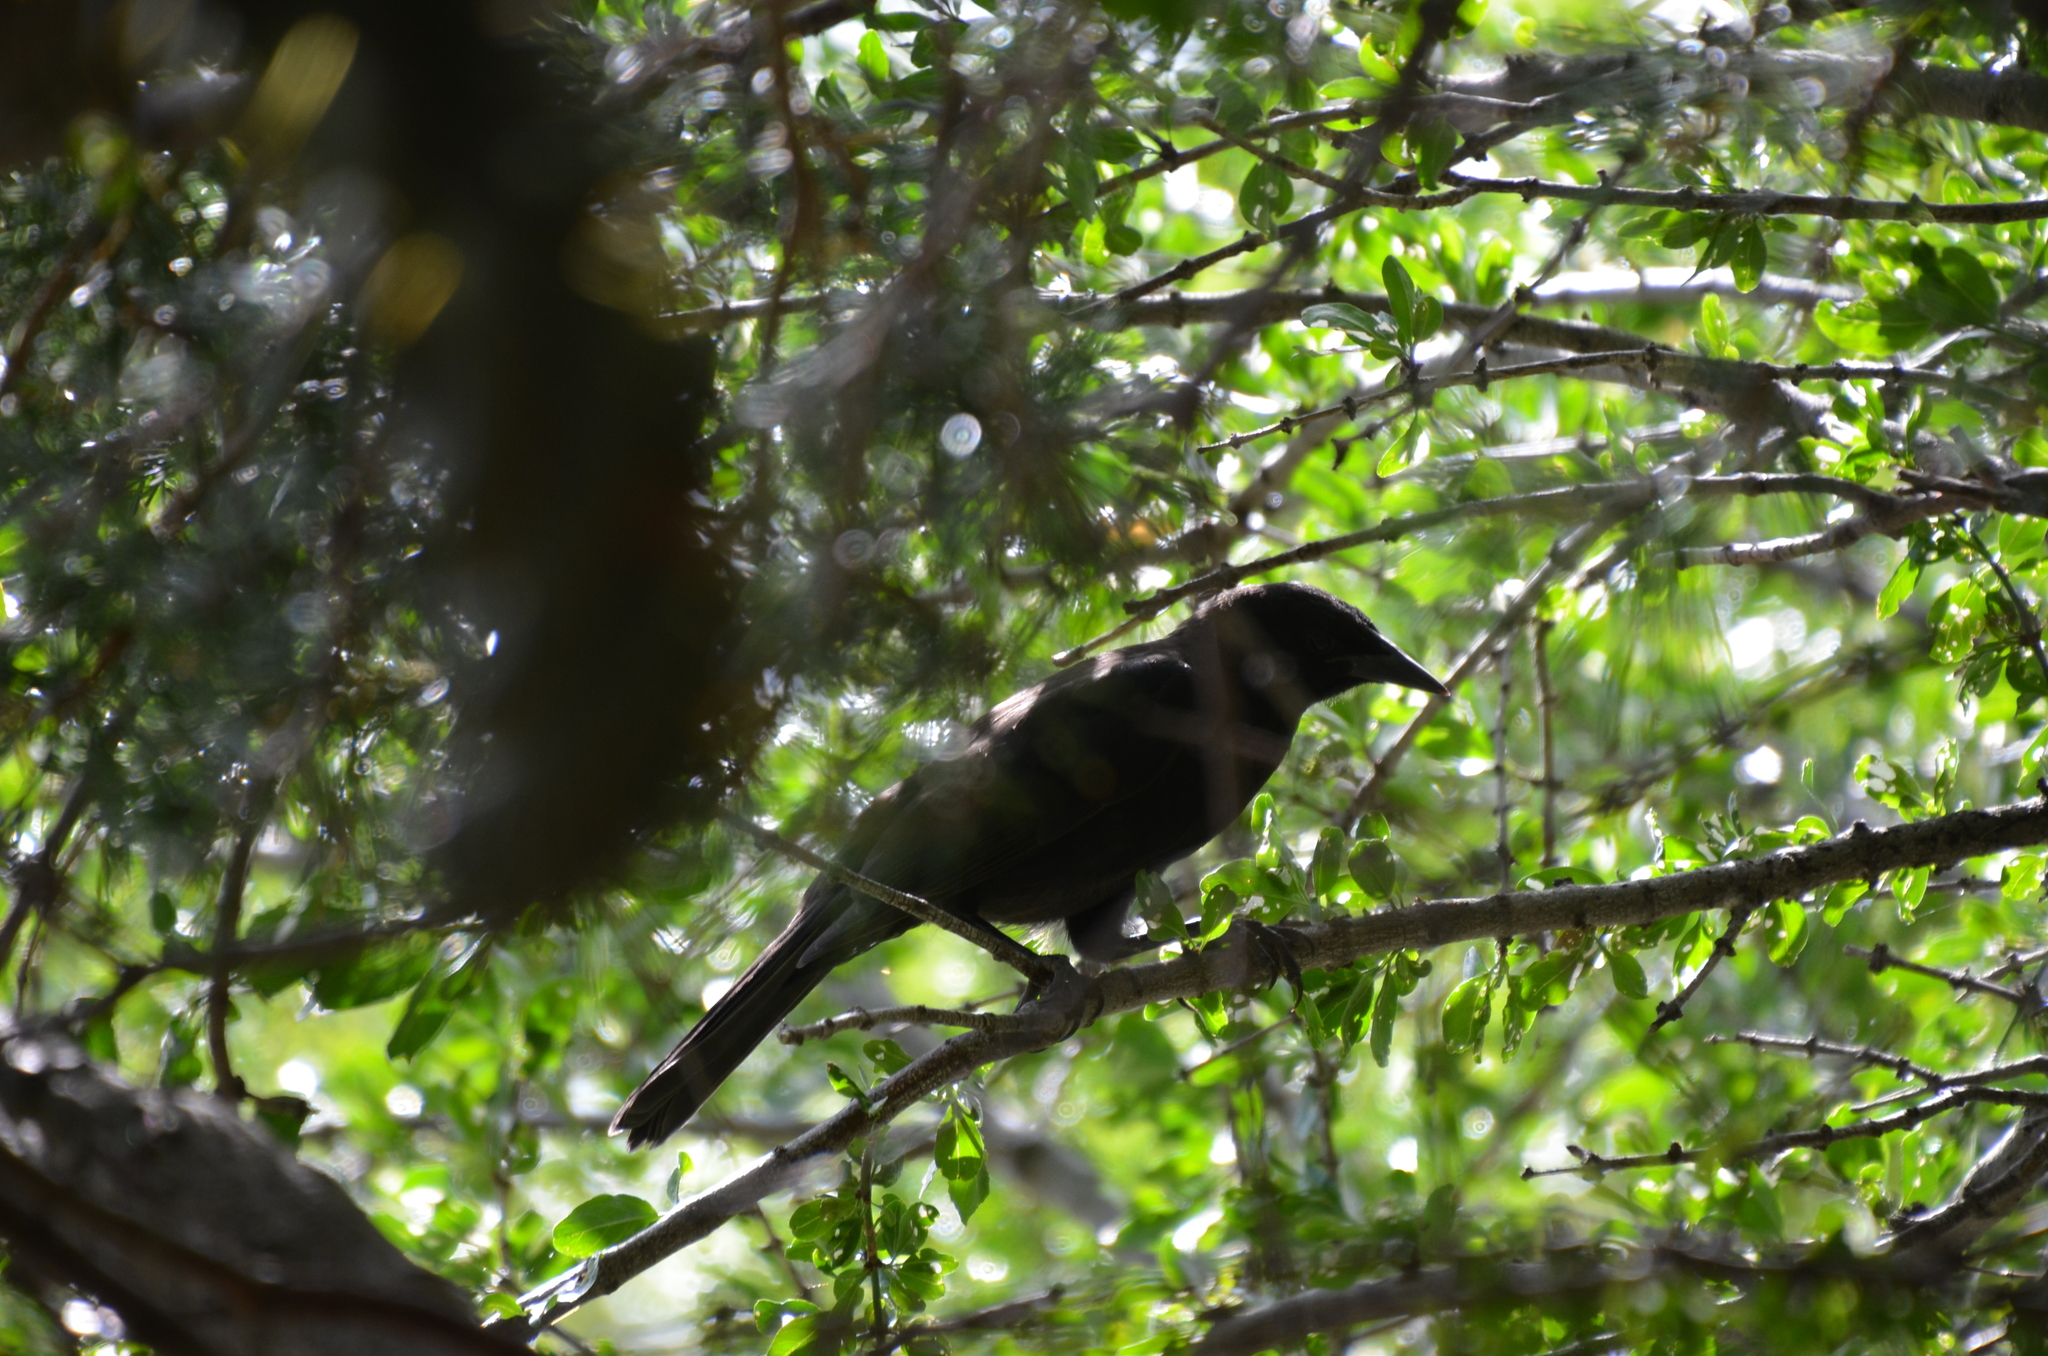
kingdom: Animalia
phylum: Chordata
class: Aves
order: Passeriformes
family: Icteridae
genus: Curaeus
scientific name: Curaeus curaeus
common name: Austral blackbird
